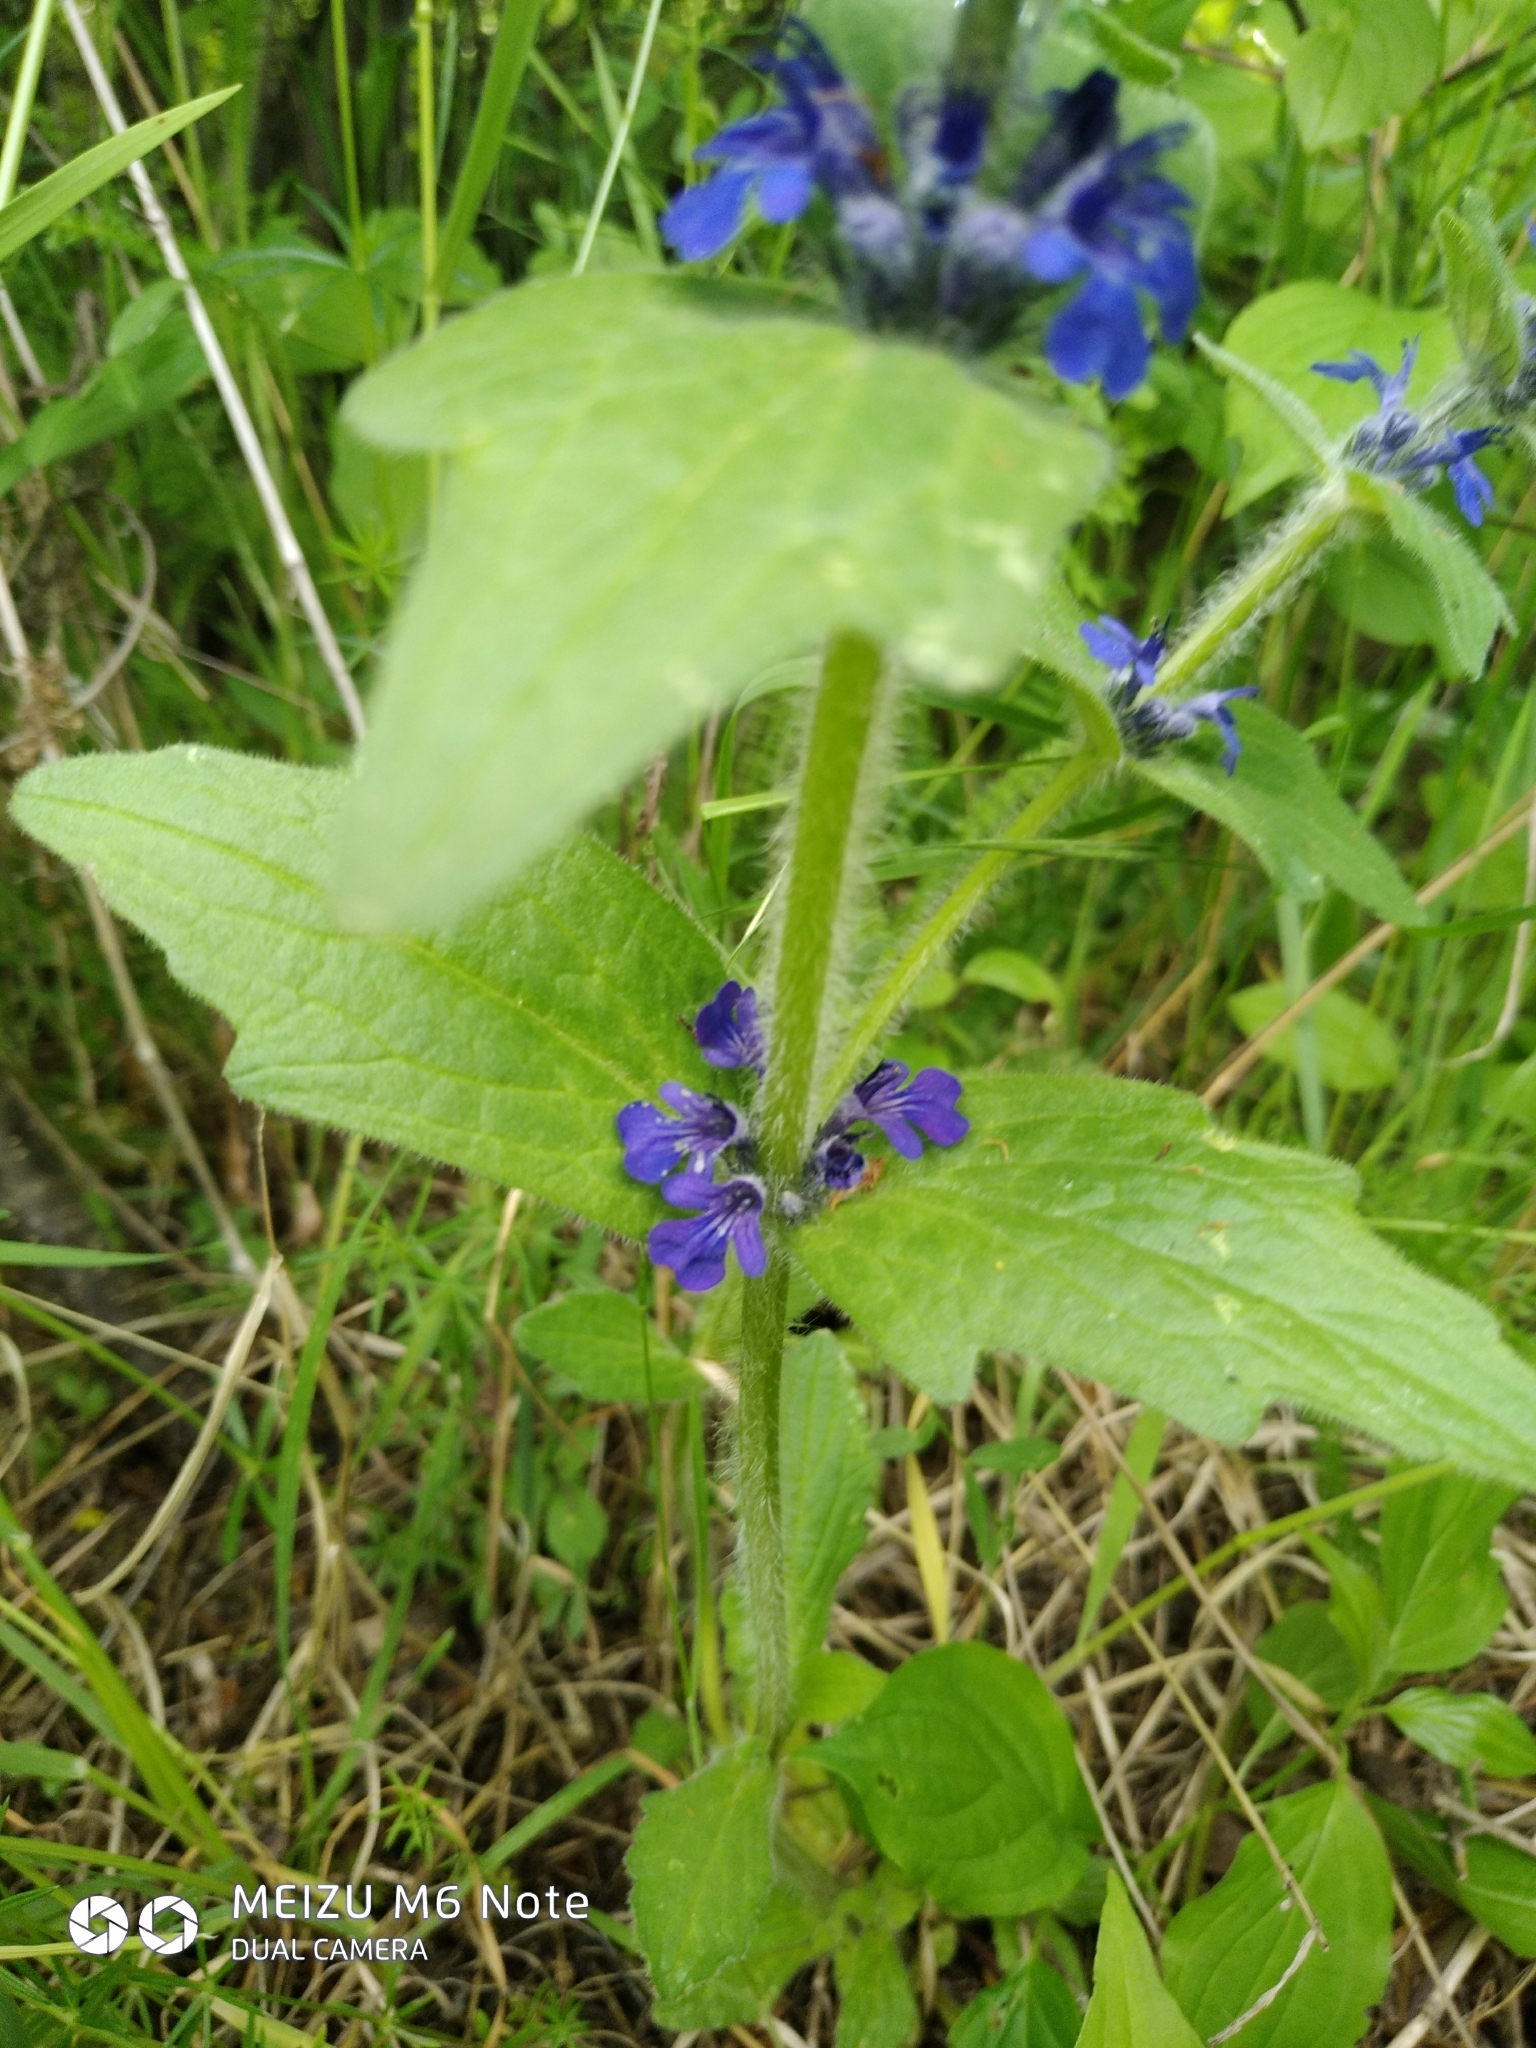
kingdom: Plantae
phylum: Tracheophyta
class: Magnoliopsida
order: Lamiales
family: Lamiaceae
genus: Ajuga
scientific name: Ajuga genevensis
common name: Blue bugle
